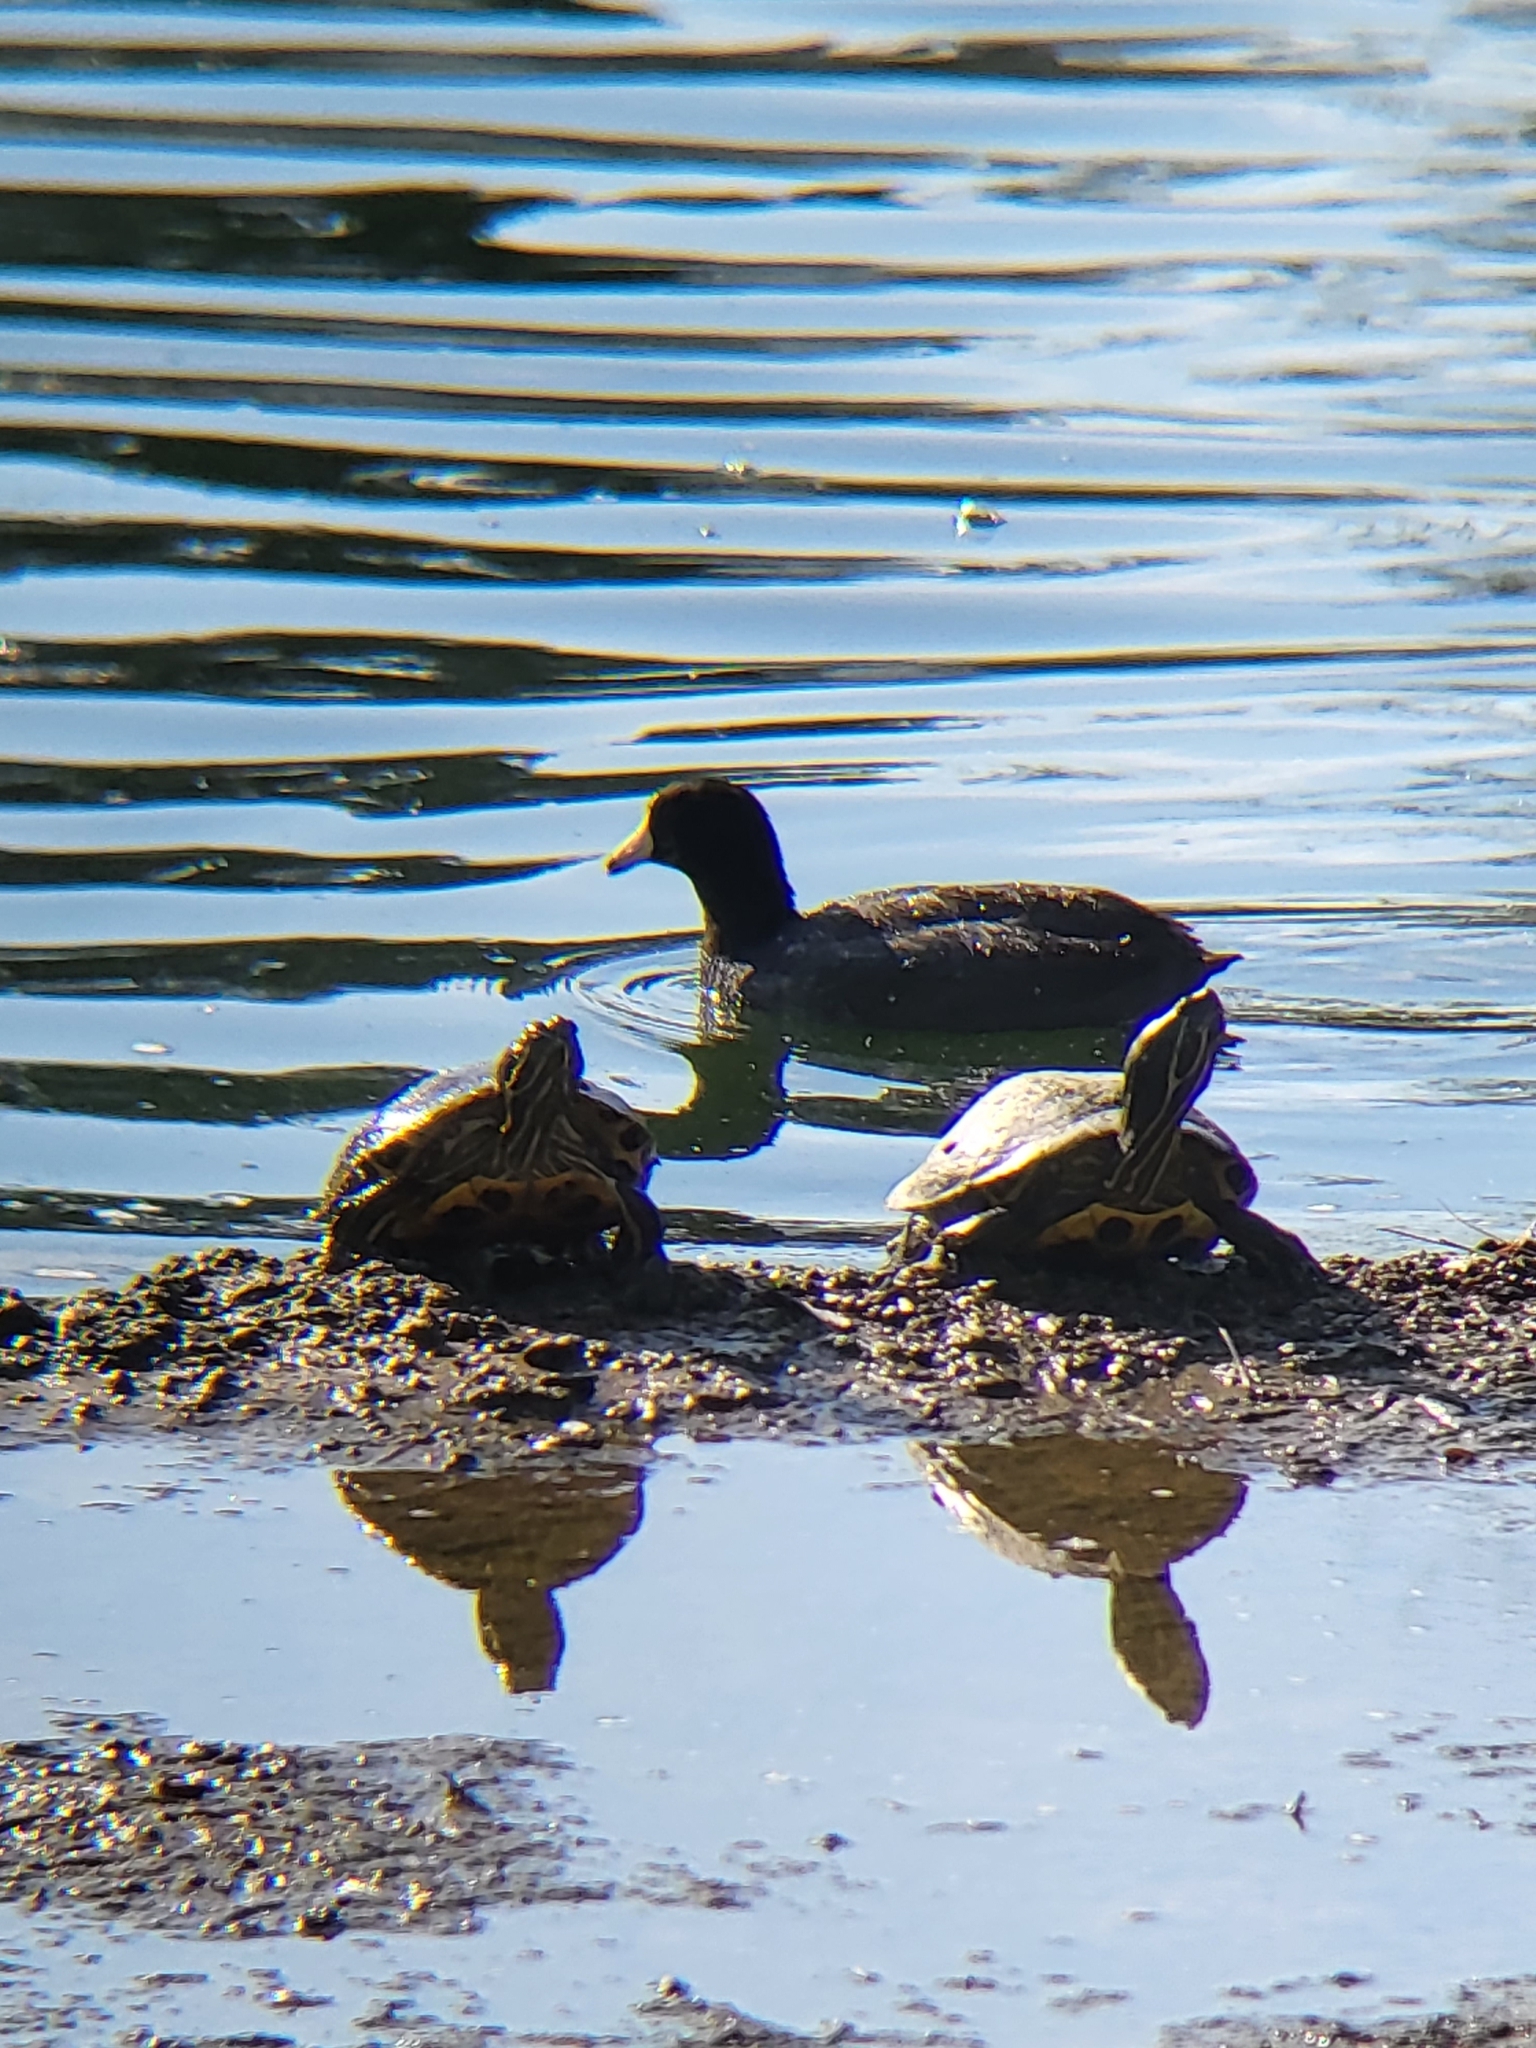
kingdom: Animalia
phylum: Chordata
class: Aves
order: Gruiformes
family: Rallidae
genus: Fulica
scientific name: Fulica americana
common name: American coot
